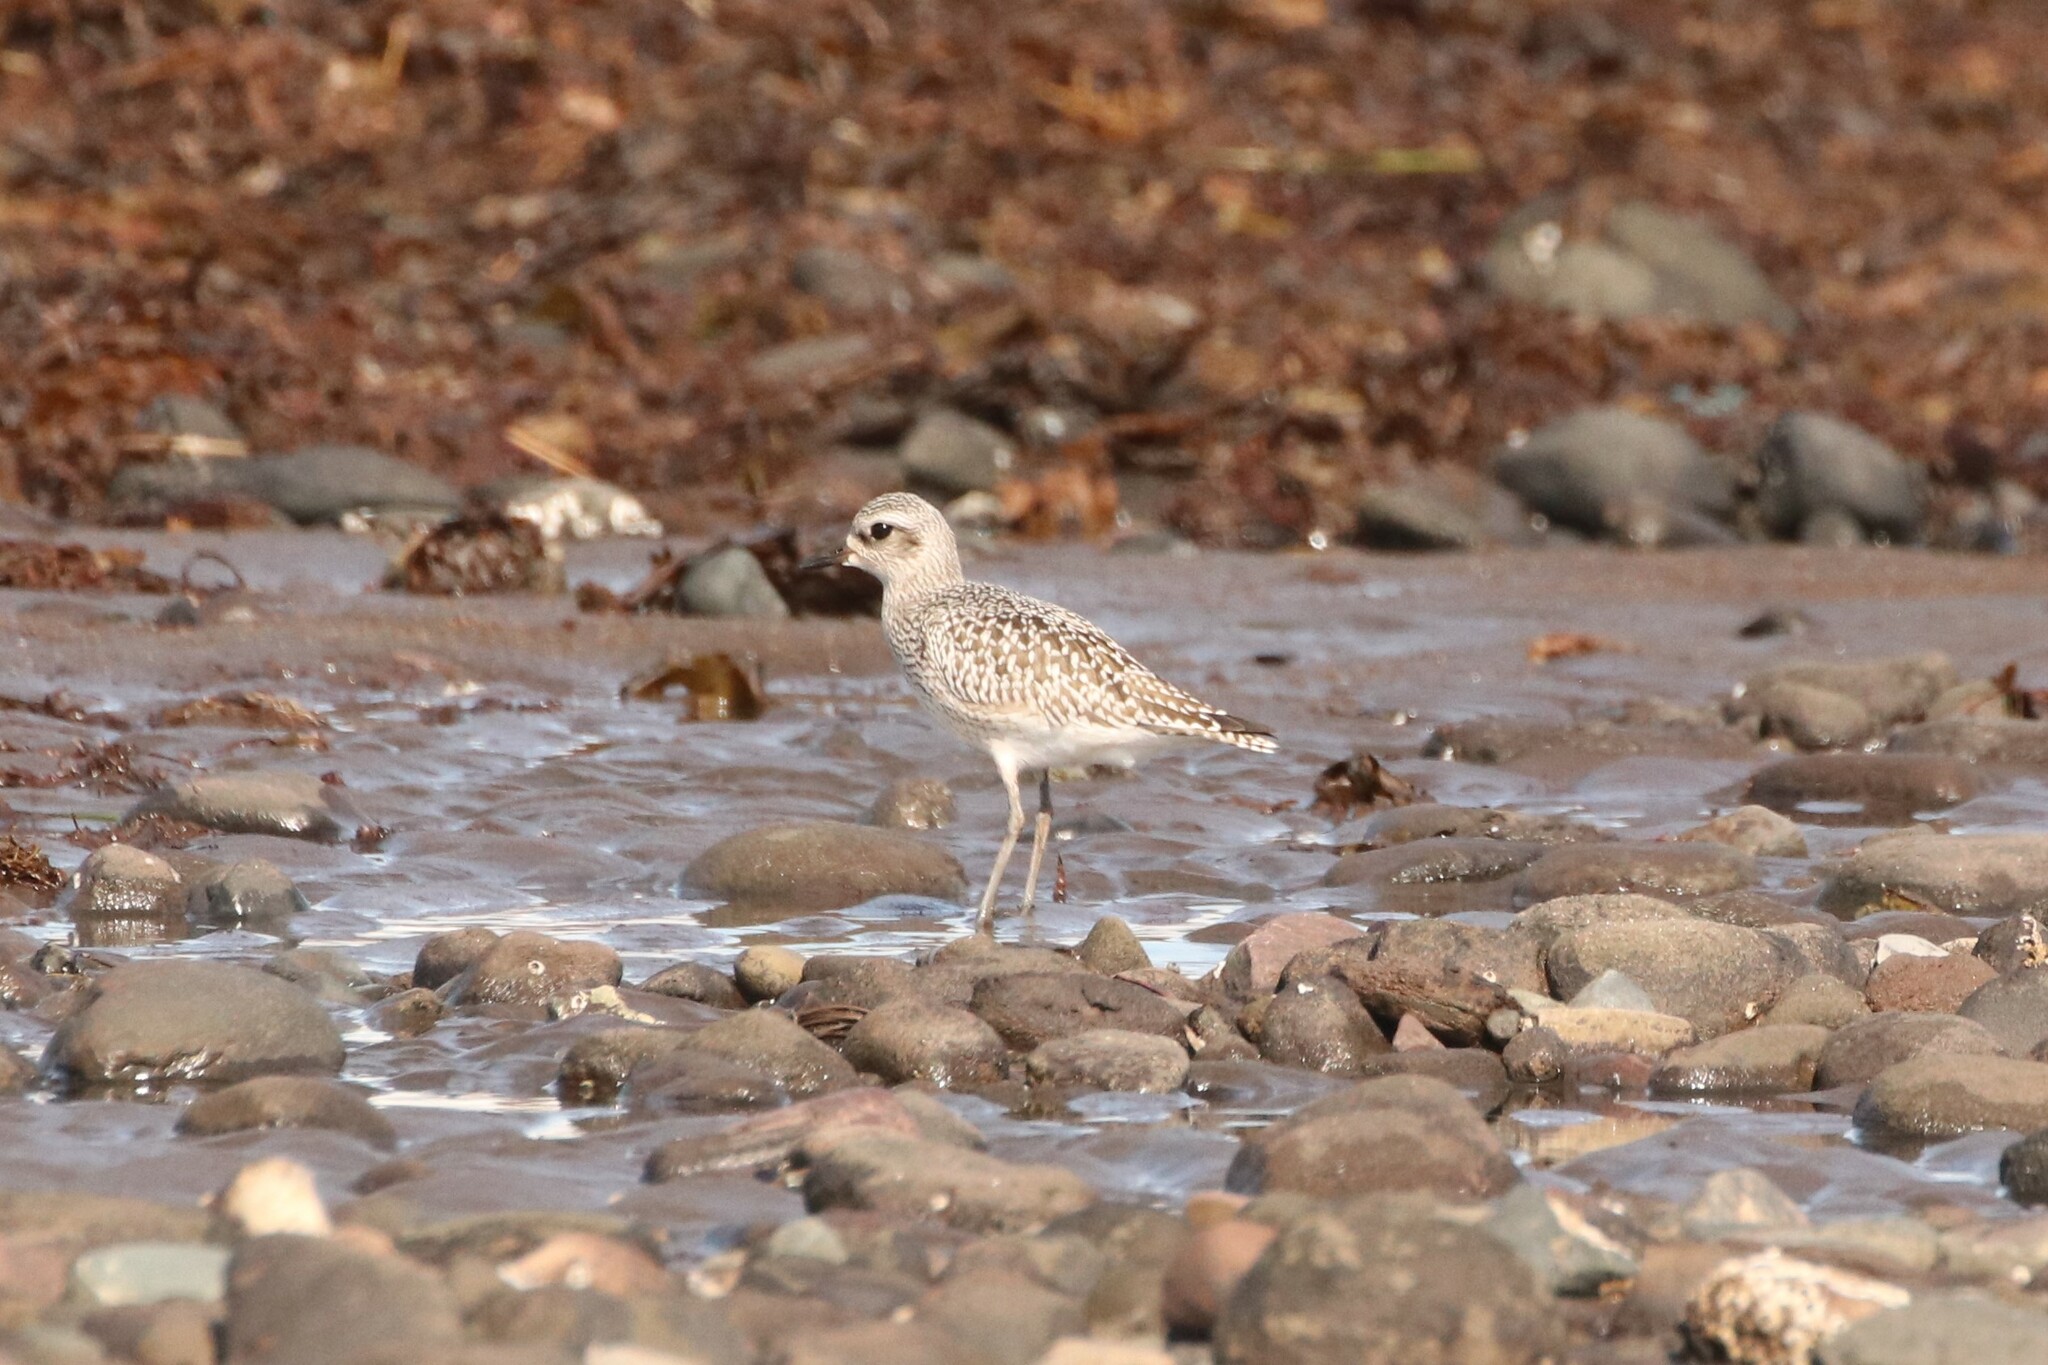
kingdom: Animalia
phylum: Chordata
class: Aves
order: Charadriiformes
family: Charadriidae
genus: Pluvialis
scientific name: Pluvialis squatarola
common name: Grey plover
